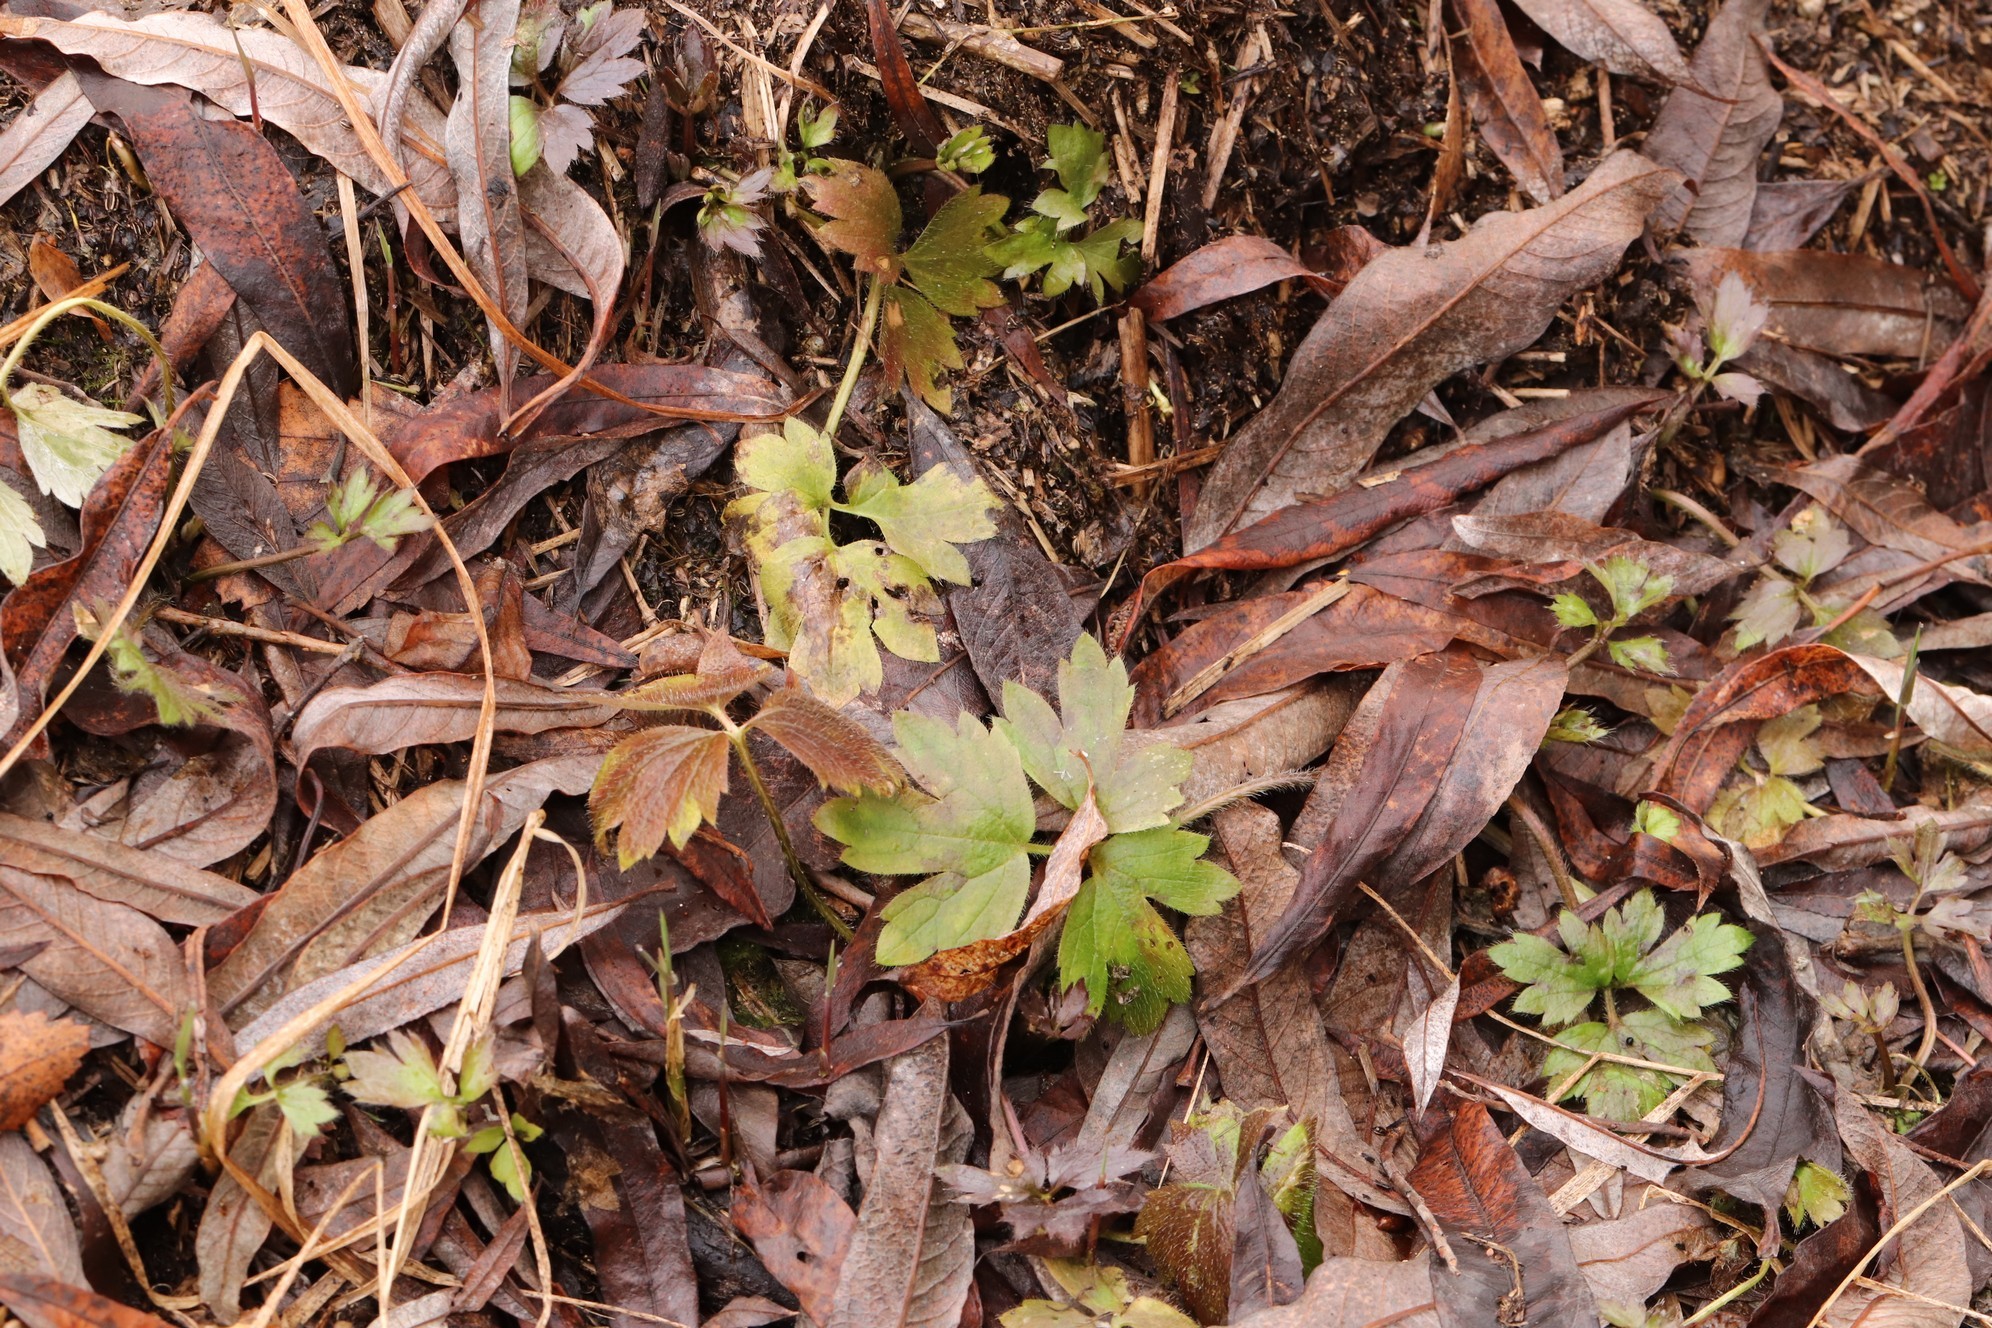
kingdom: Plantae
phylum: Tracheophyta
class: Magnoliopsida
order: Ranunculales
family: Ranunculaceae
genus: Ranunculus
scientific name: Ranunculus repens
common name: Creeping buttercup
